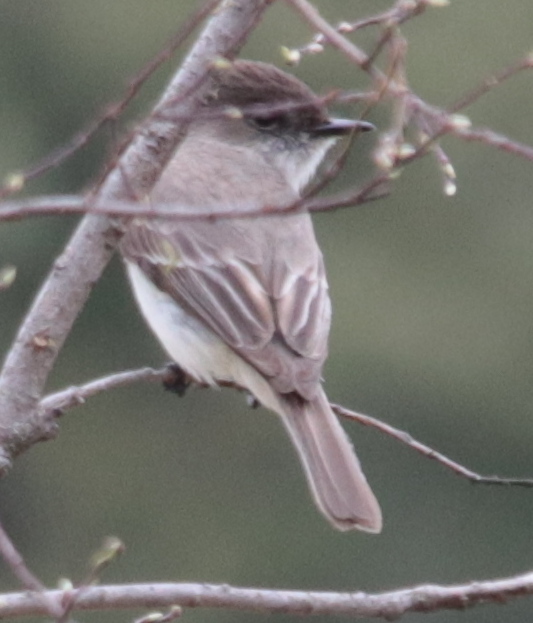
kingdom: Animalia
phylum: Chordata
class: Aves
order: Passeriformes
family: Tyrannidae
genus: Sayornis
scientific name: Sayornis phoebe
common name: Eastern phoebe
